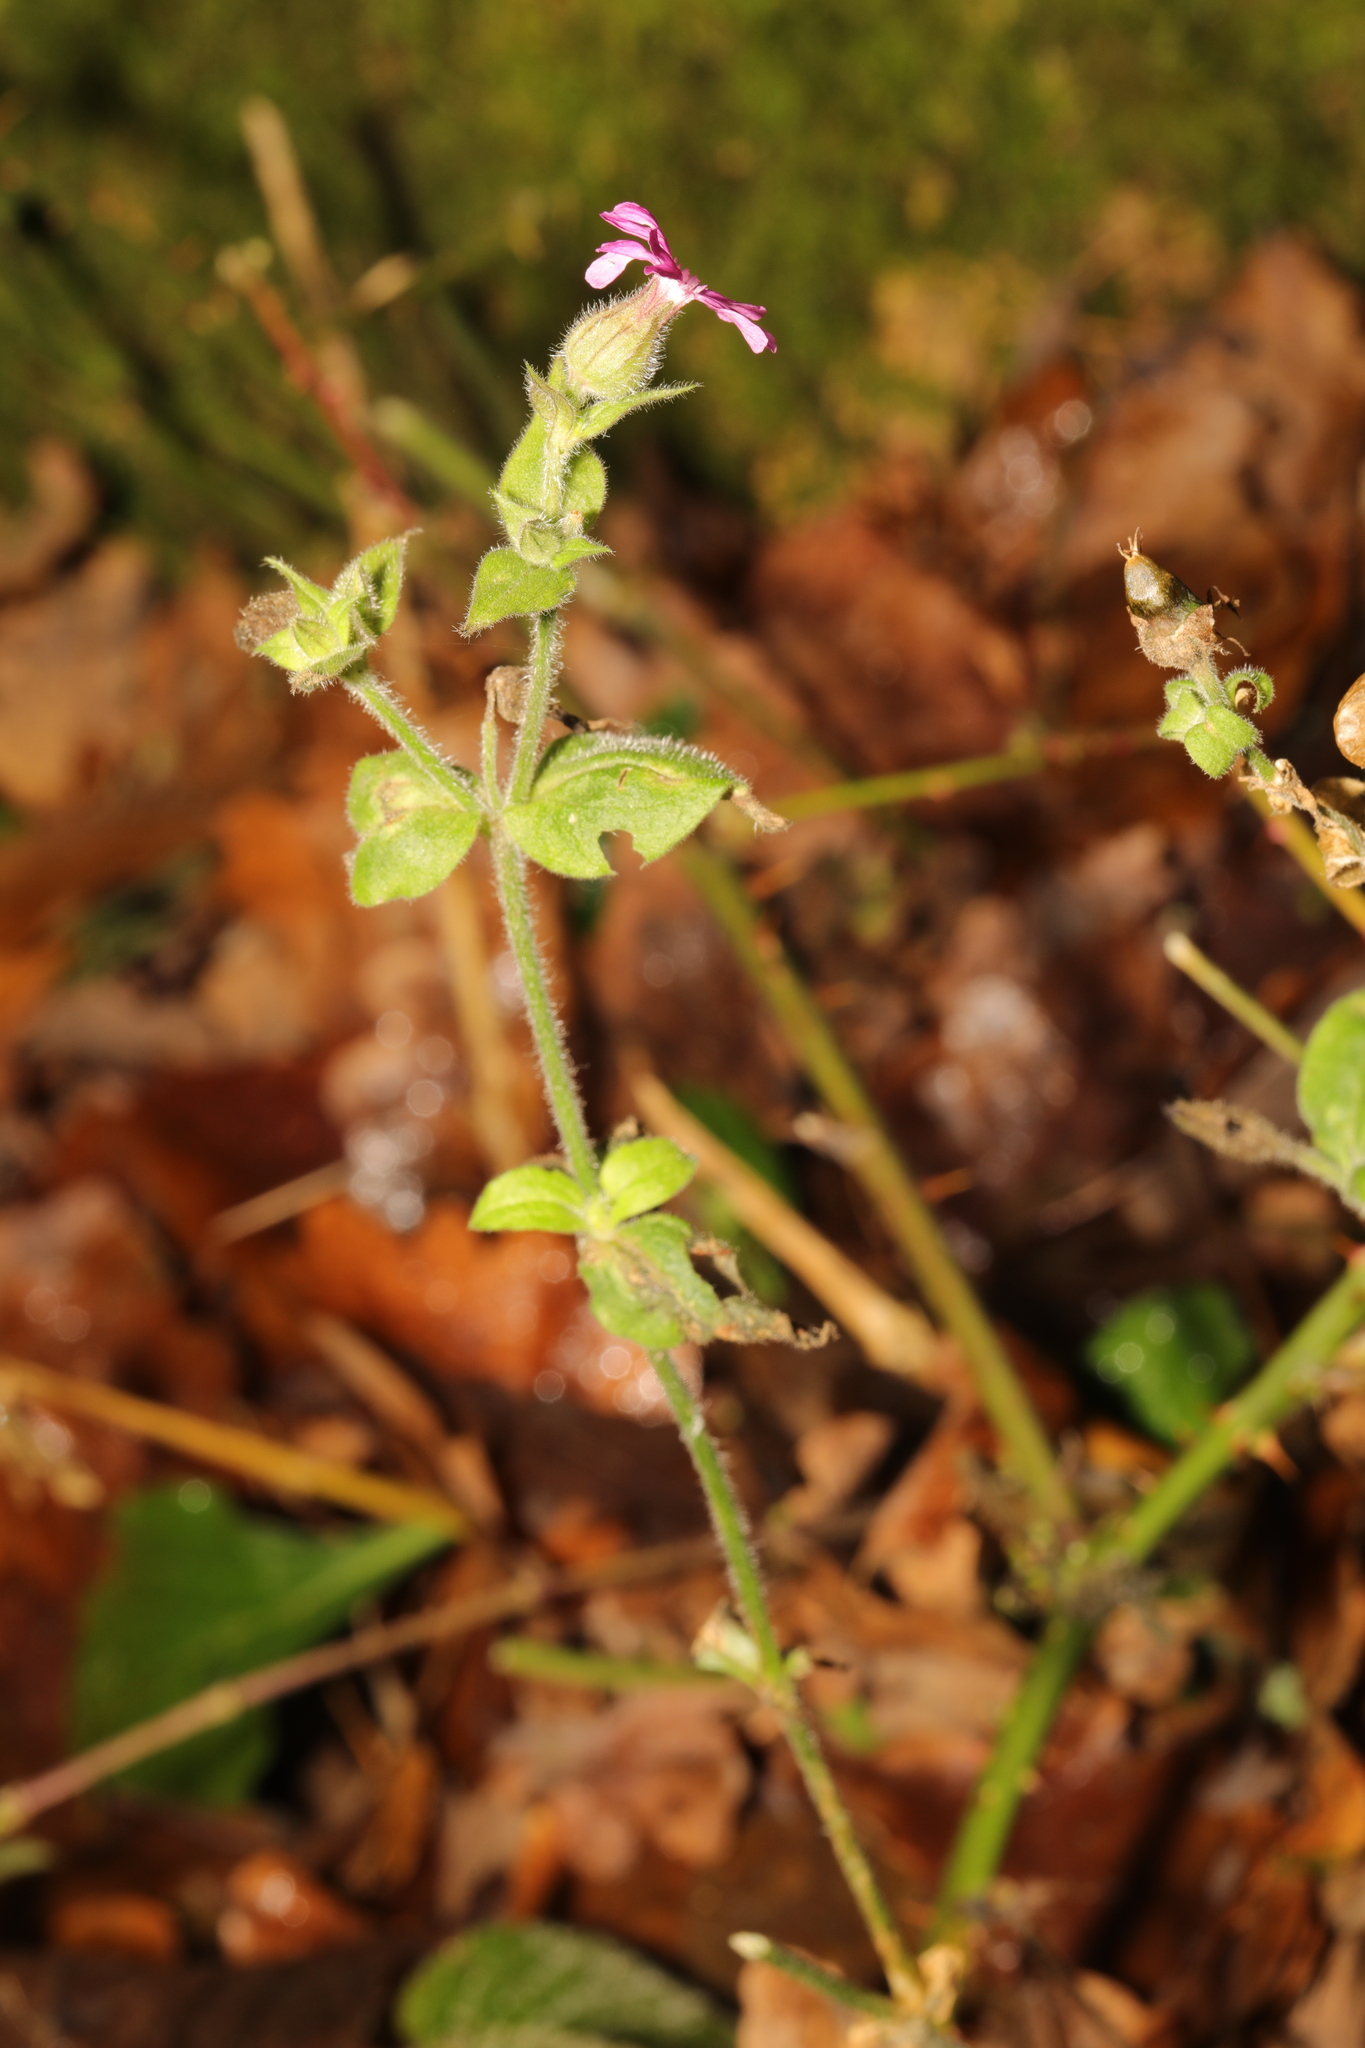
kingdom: Plantae
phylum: Tracheophyta
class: Magnoliopsida
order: Caryophyllales
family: Caryophyllaceae
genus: Silene
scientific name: Silene dioica
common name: Red campion
